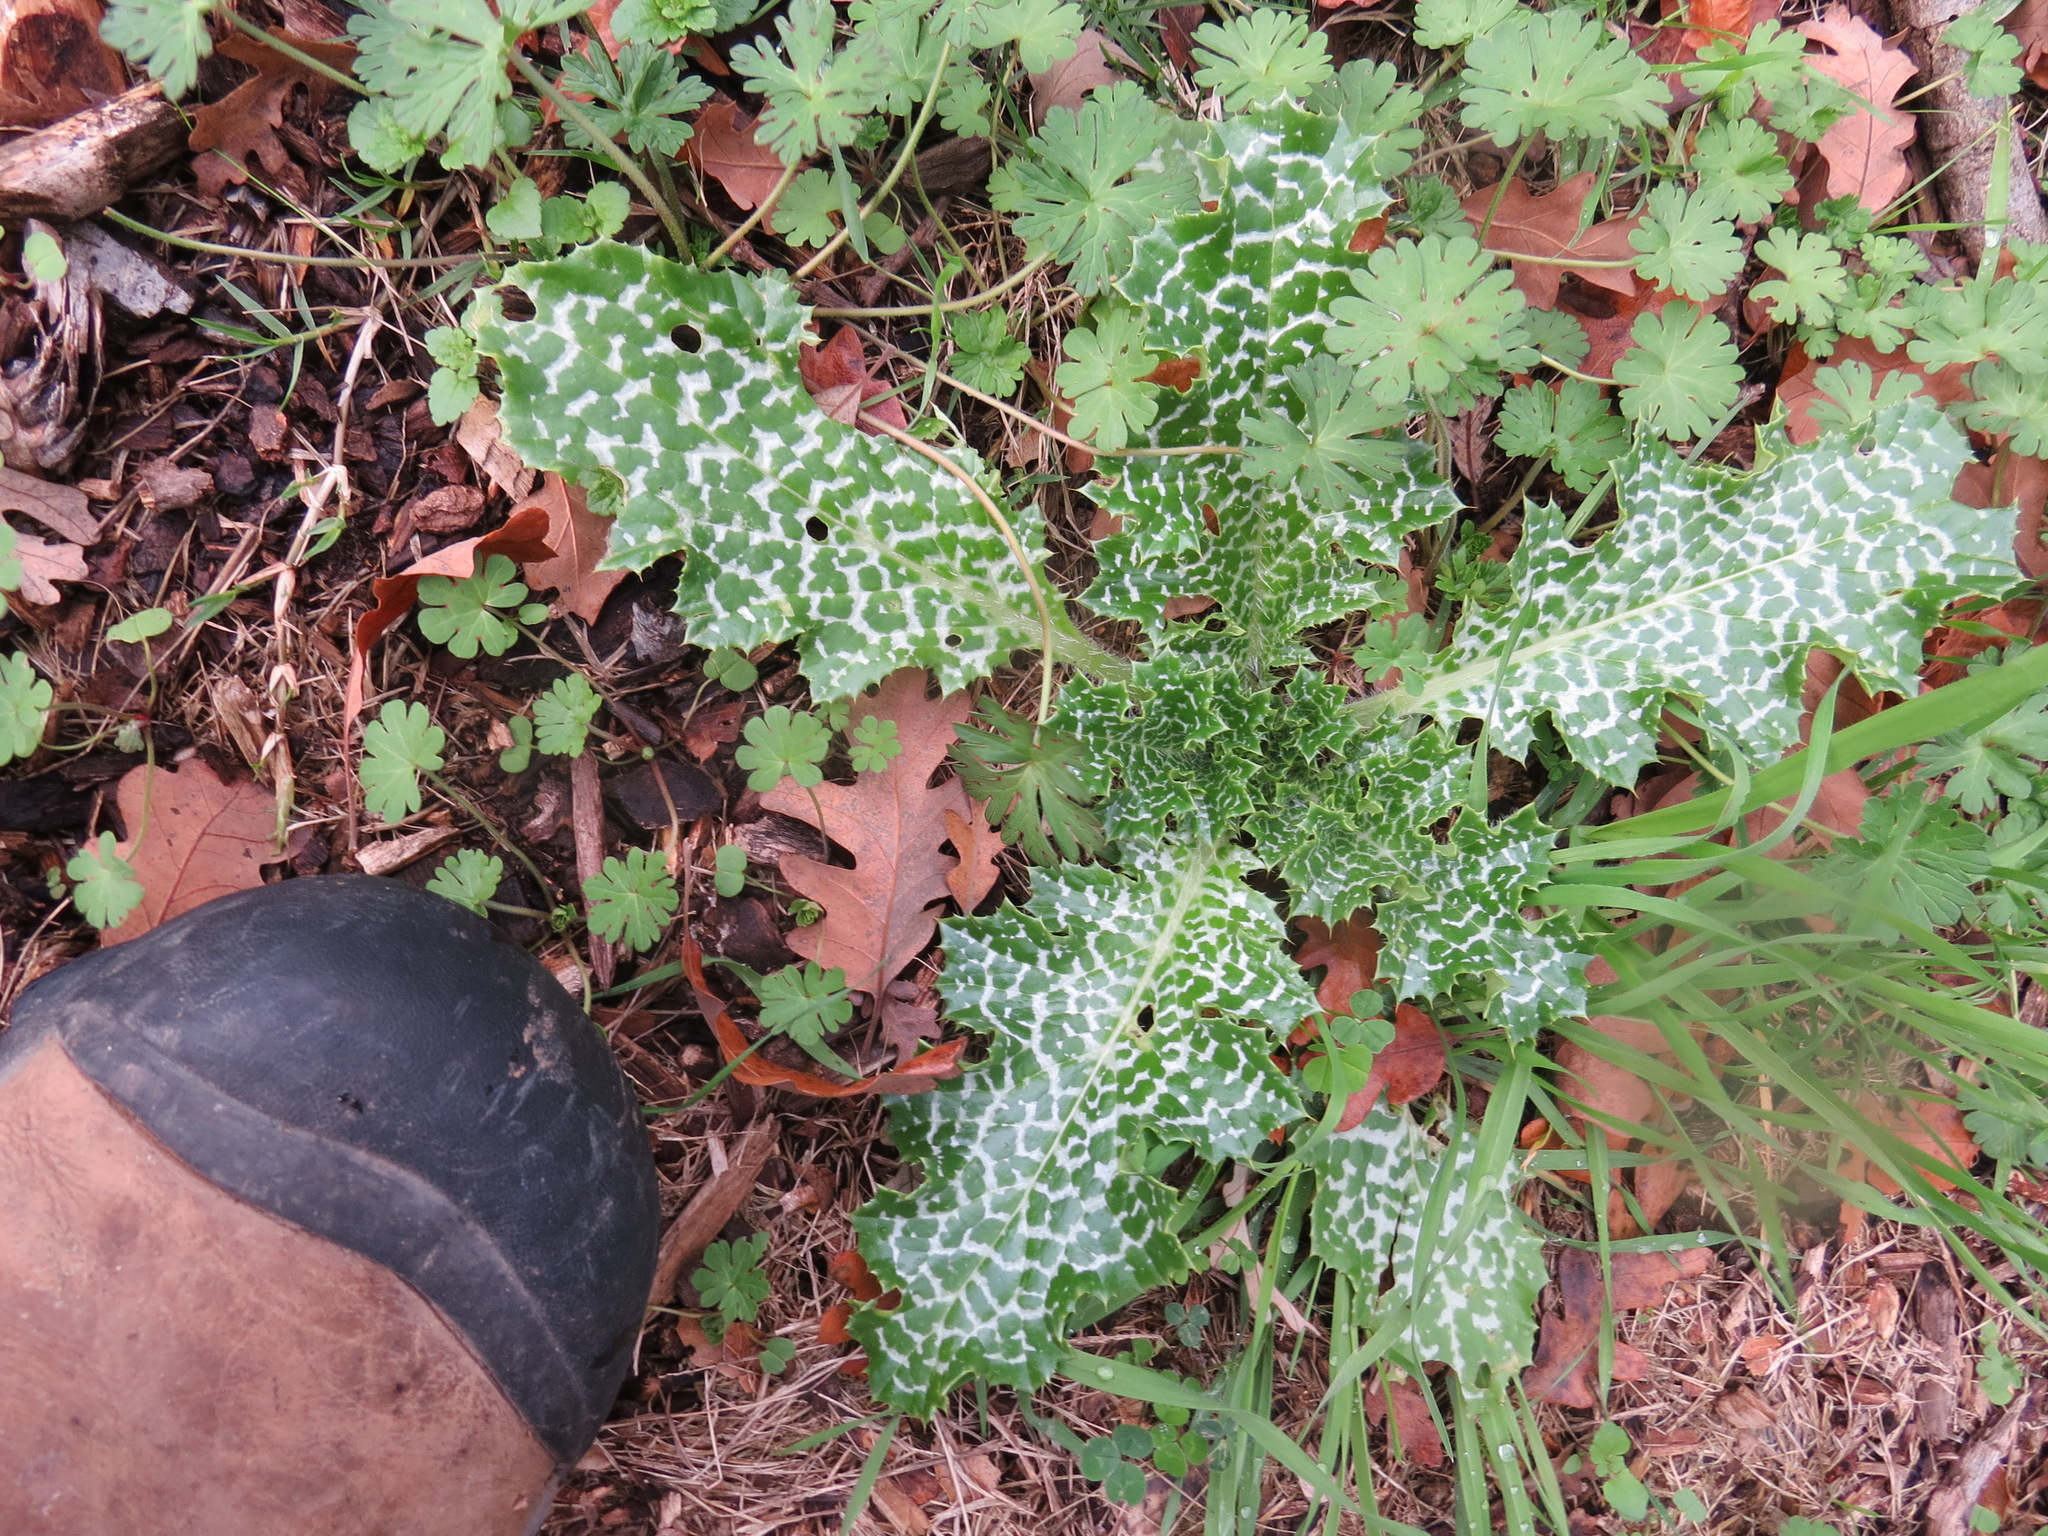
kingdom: Plantae
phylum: Tracheophyta
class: Magnoliopsida
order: Asterales
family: Asteraceae
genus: Silybum
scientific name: Silybum marianum
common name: Milk thistle
